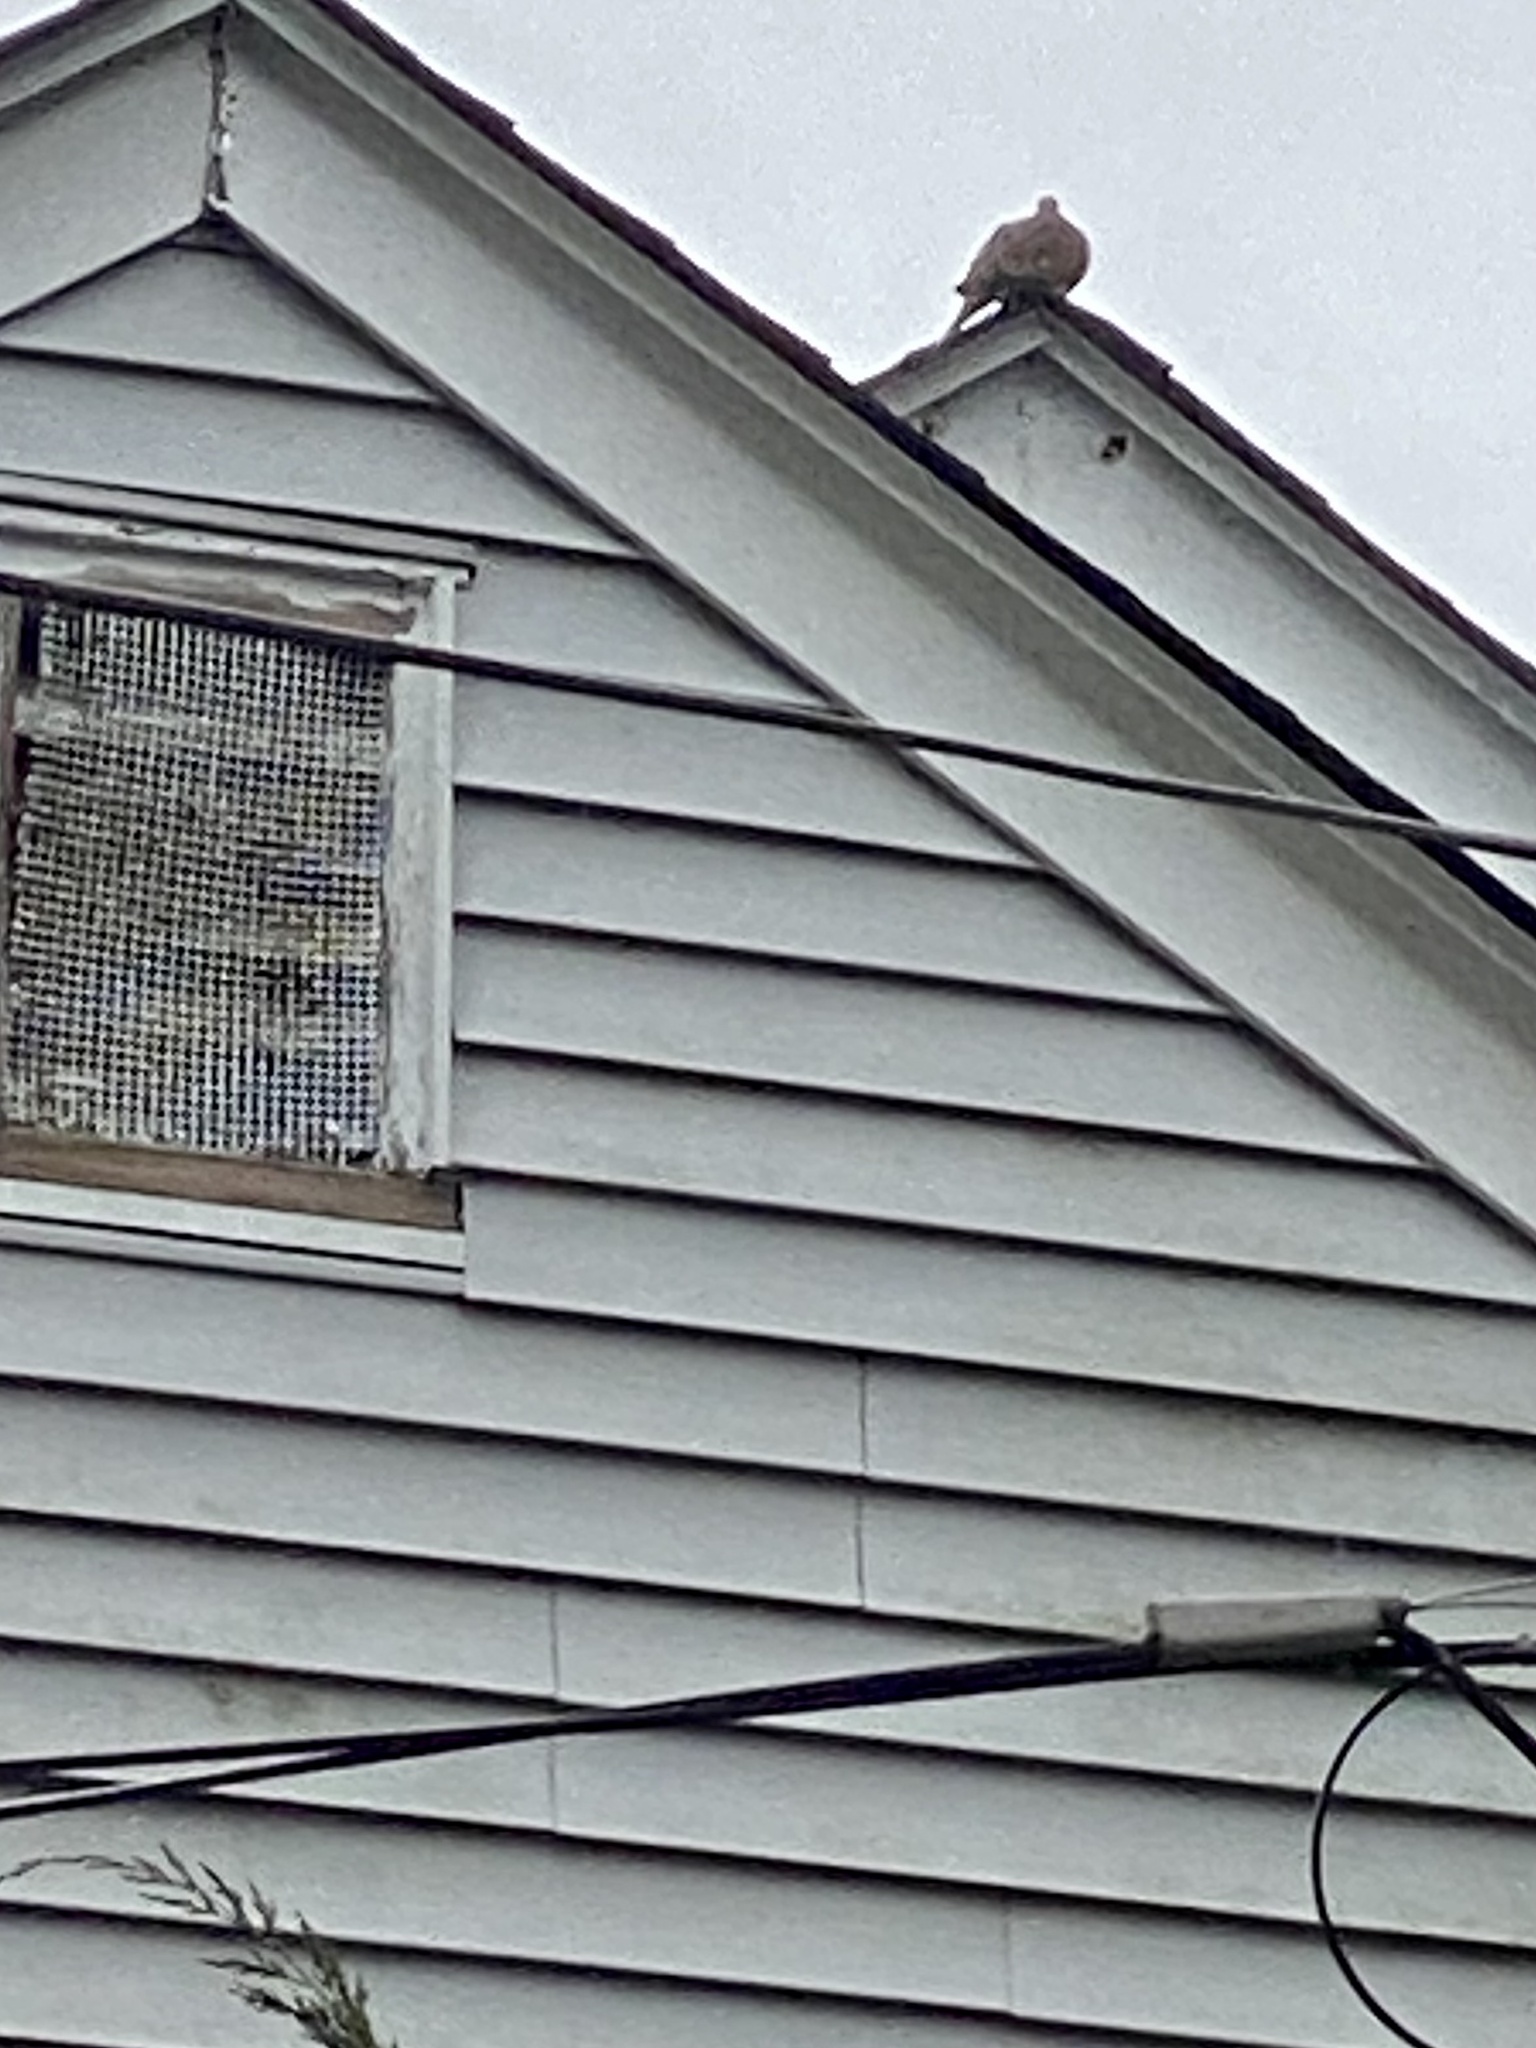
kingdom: Animalia
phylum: Chordata
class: Aves
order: Columbiformes
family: Columbidae
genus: Zenaida
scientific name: Zenaida macroura
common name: Mourning dove
